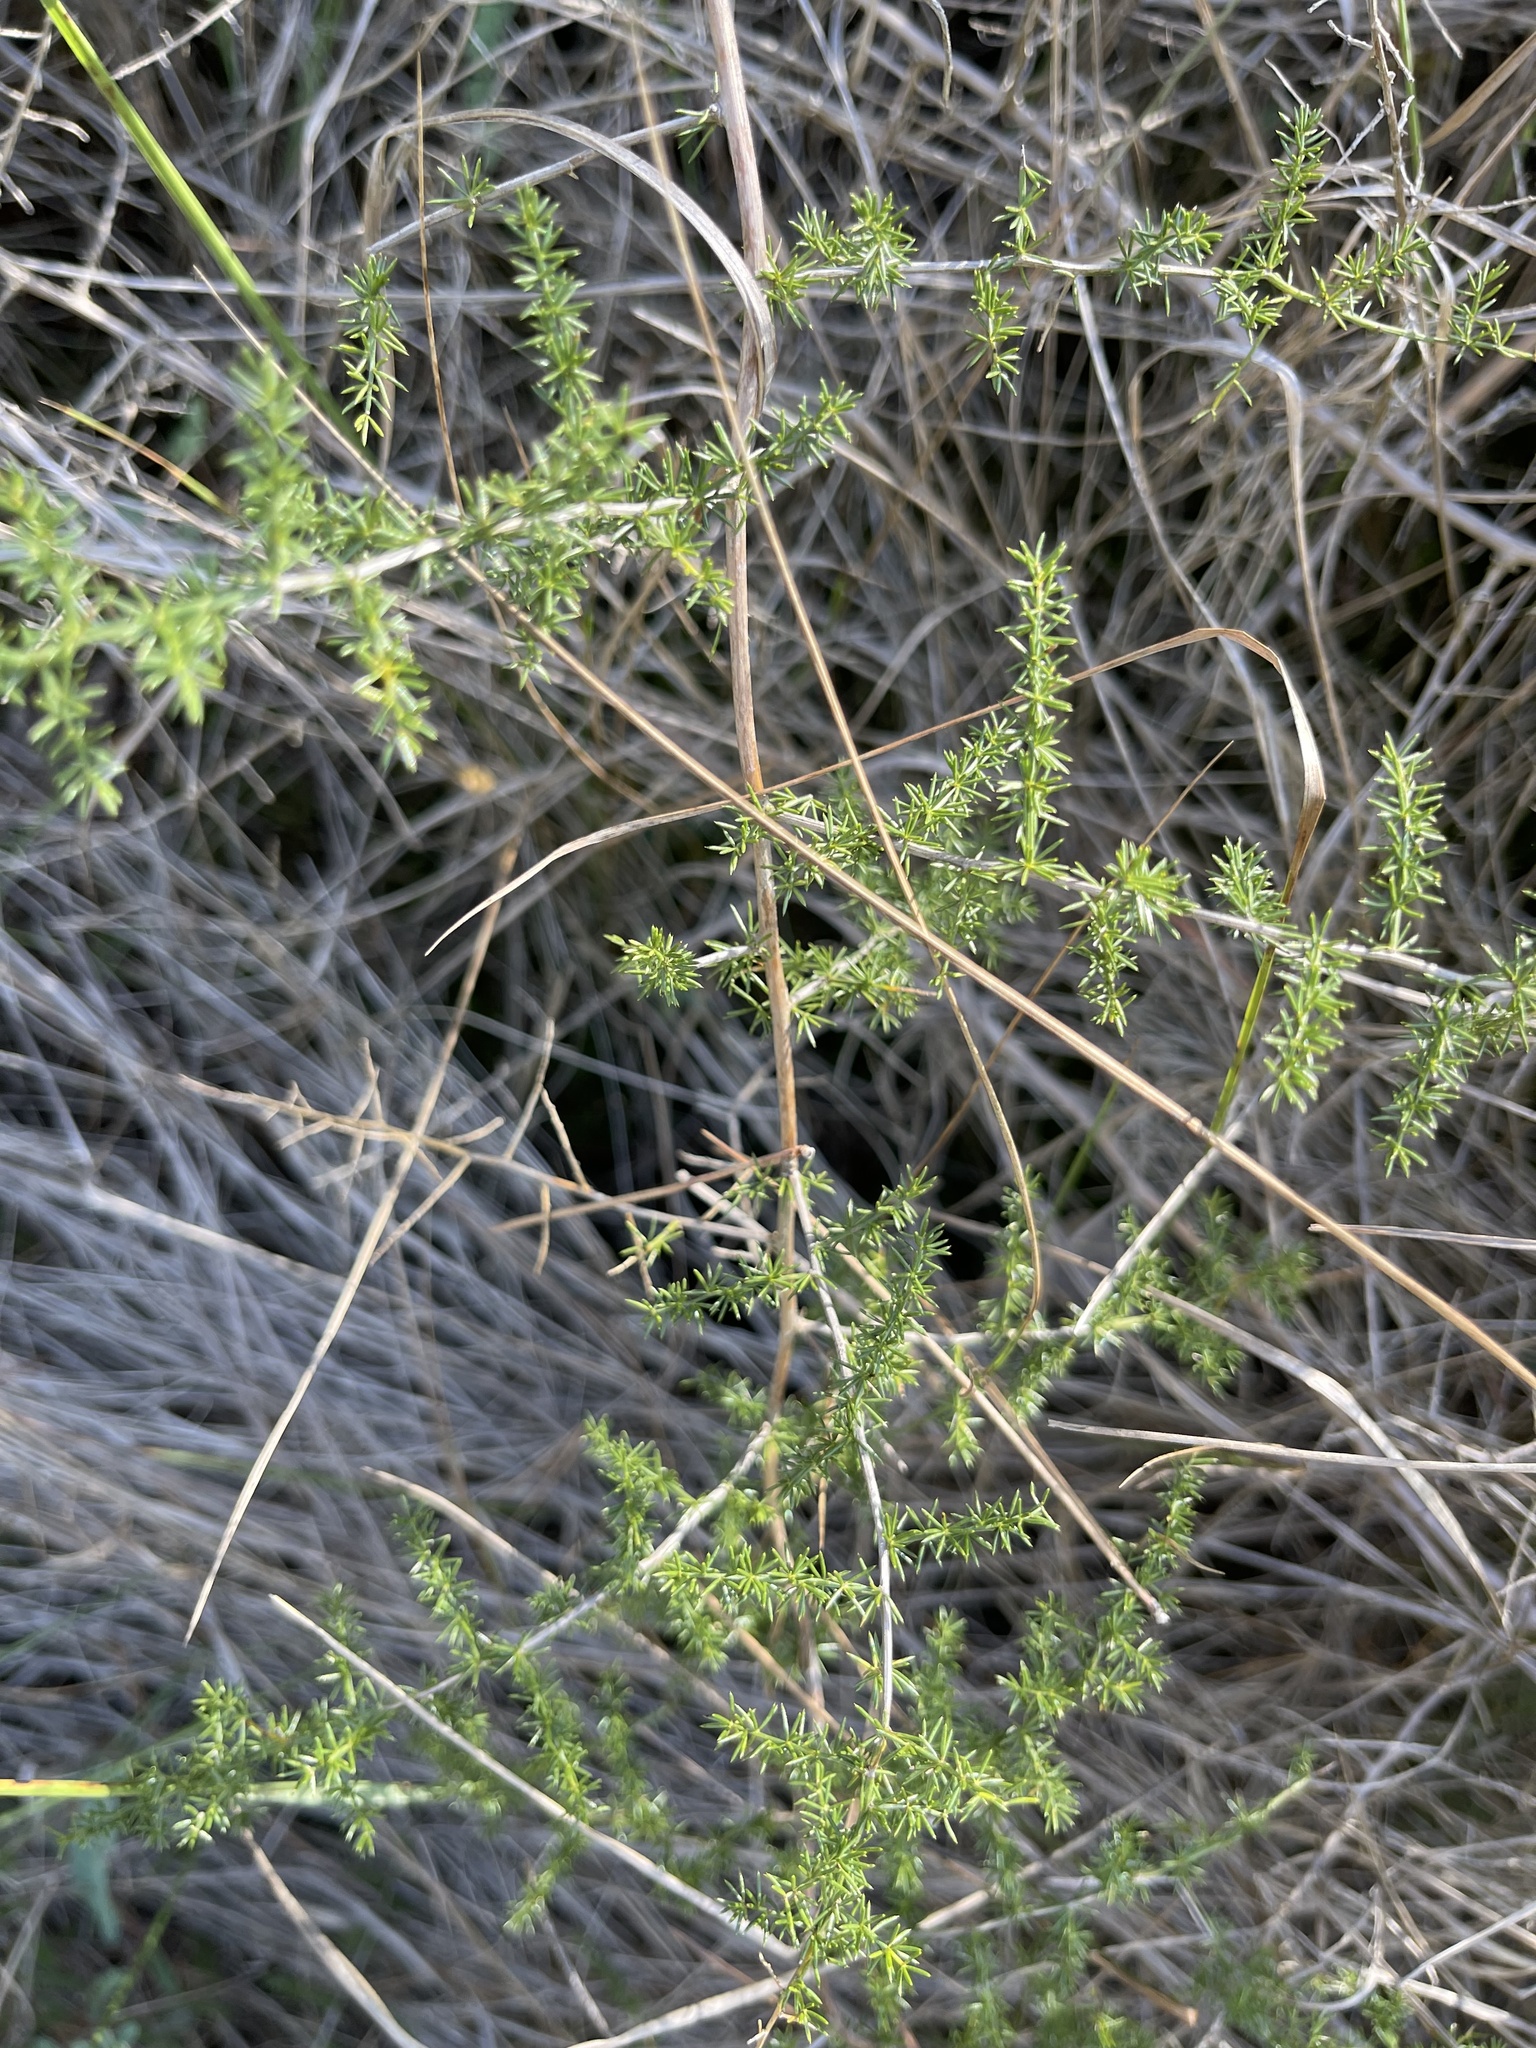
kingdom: Plantae
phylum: Tracheophyta
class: Liliopsida
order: Asparagales
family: Asparagaceae
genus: Asparagus
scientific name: Asparagus acutifolius
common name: Wild asparagus
